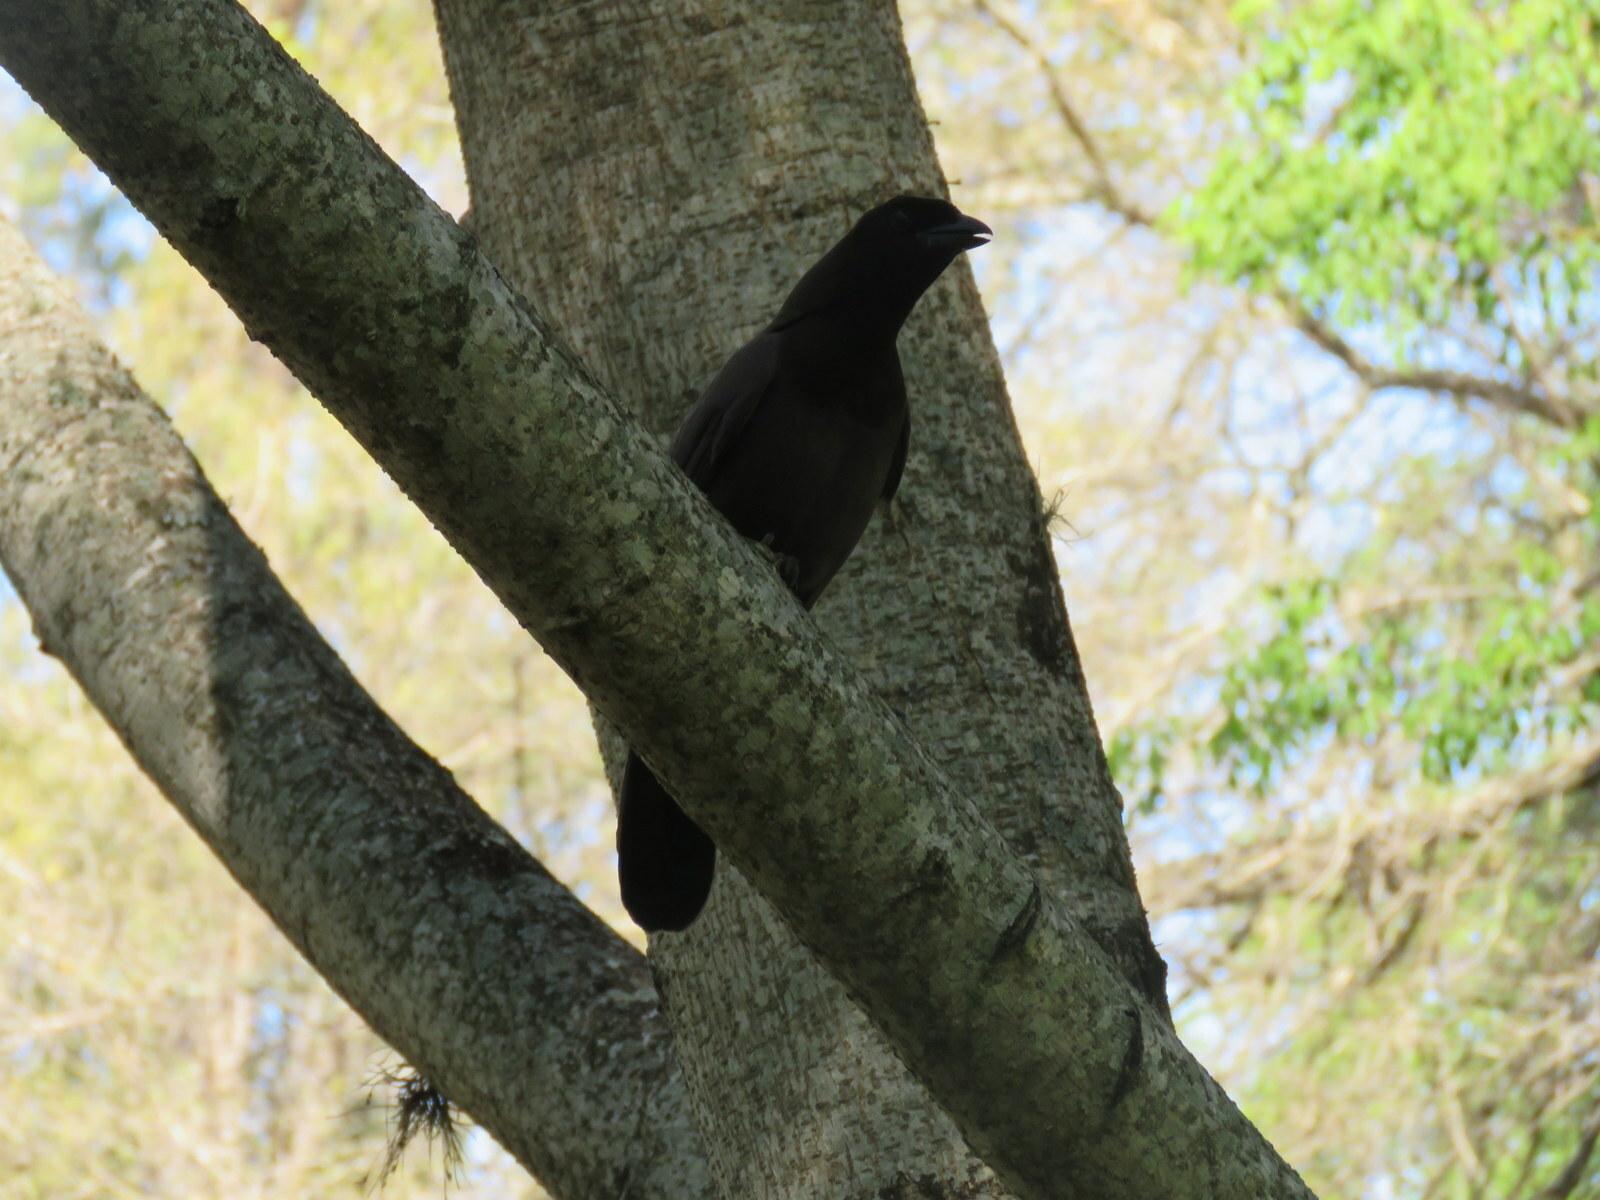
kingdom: Animalia
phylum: Chordata
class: Aves
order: Passeriformes
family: Corvidae
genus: Cyanocorax
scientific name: Cyanocorax cyanomelas
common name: Purplish jay
